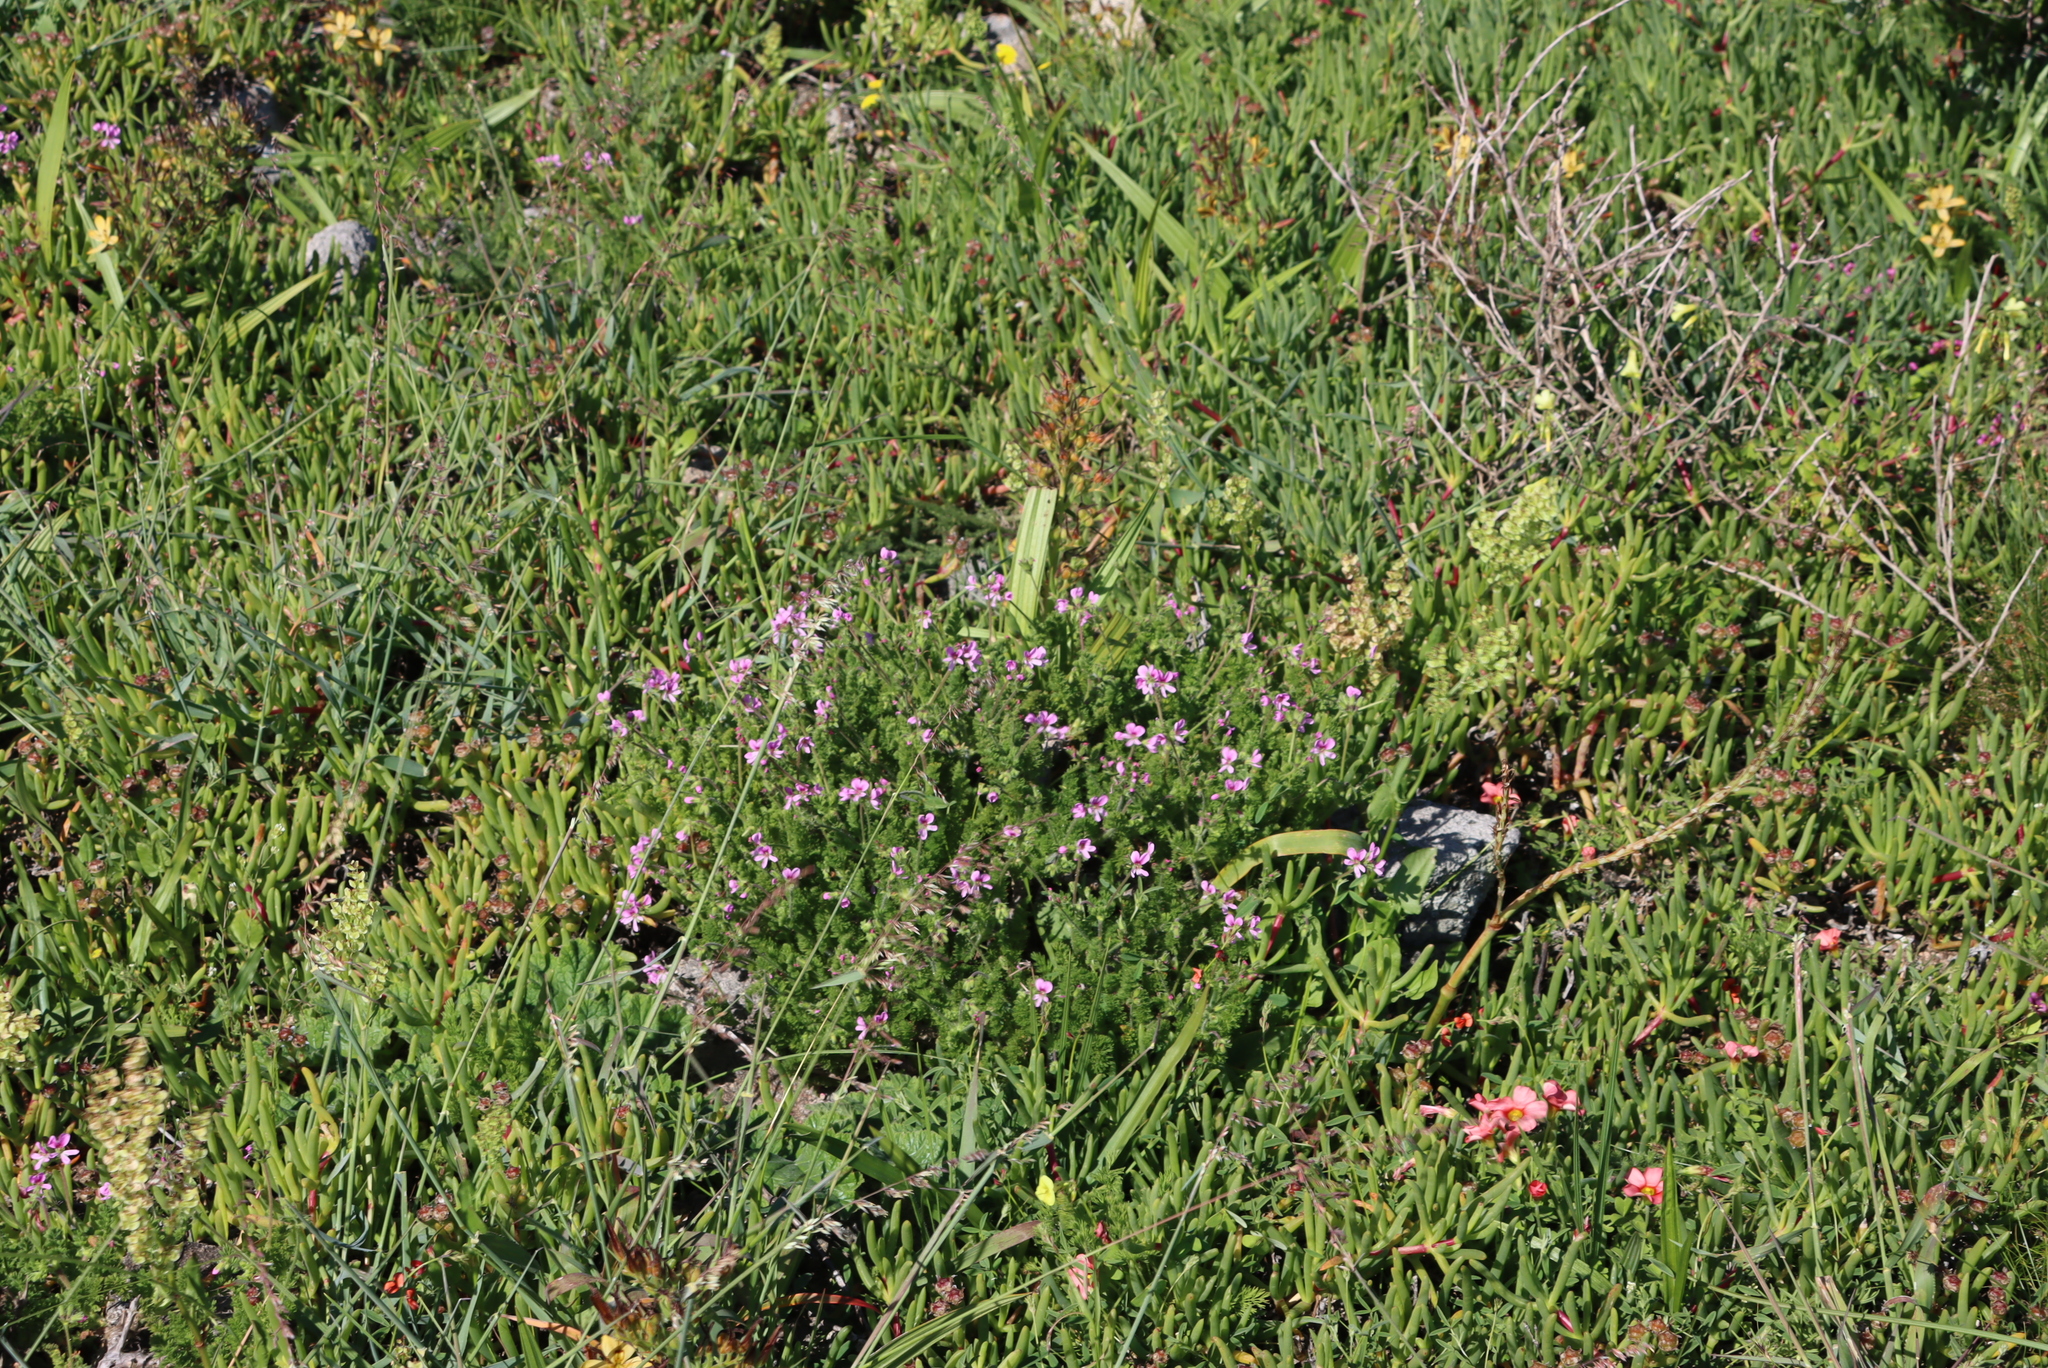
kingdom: Plantae
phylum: Tracheophyta
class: Magnoliopsida
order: Geraniales
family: Geraniaceae
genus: Pelargonium
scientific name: Pelargonium hirtum
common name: Fine-leaf pelargonium
